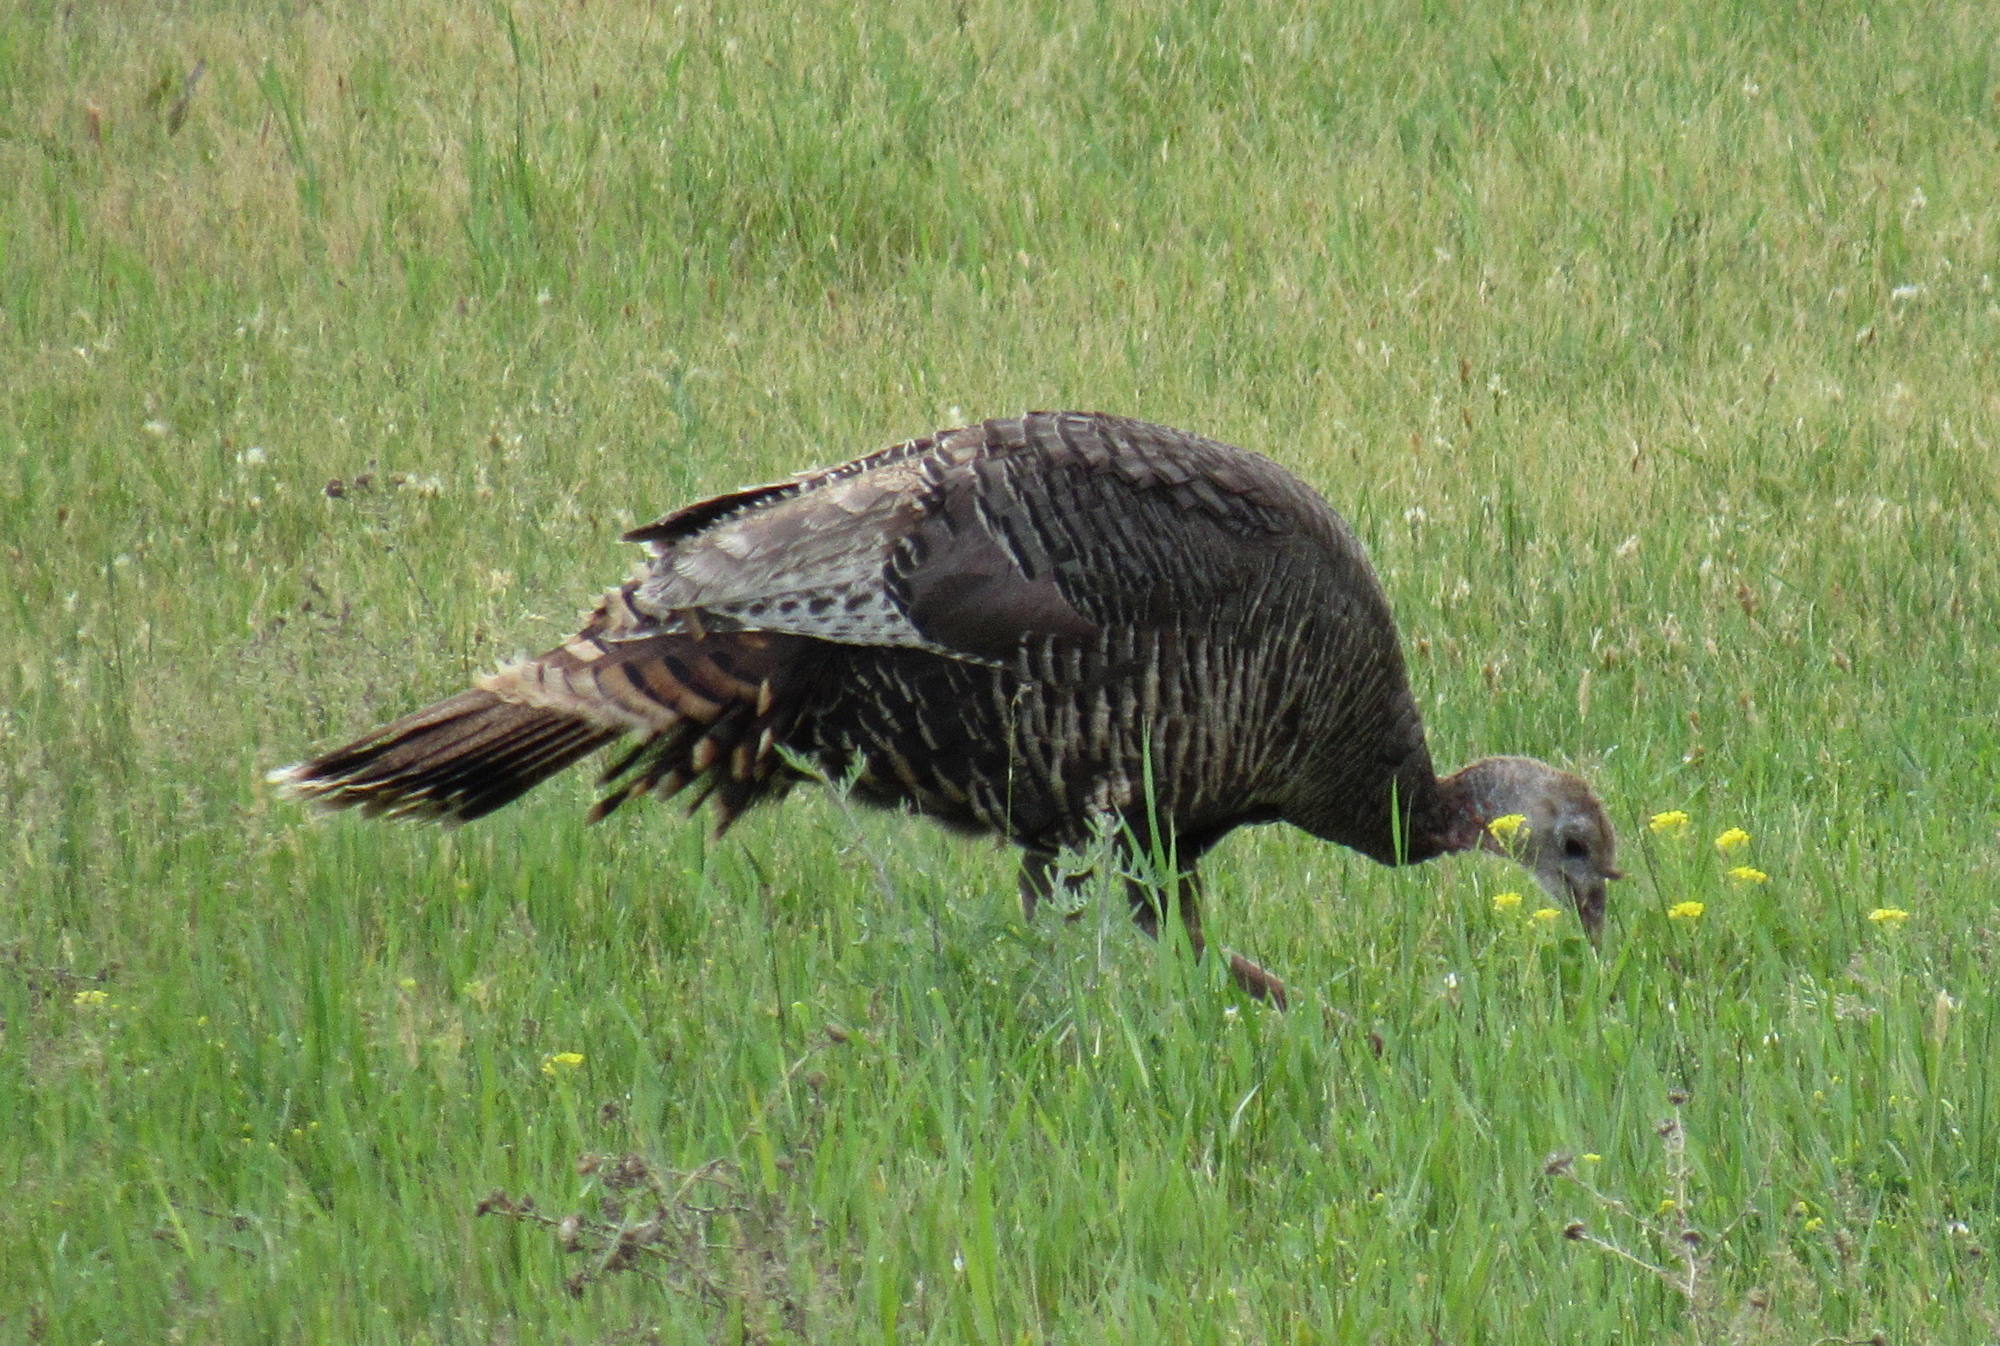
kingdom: Animalia
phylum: Chordata
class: Aves
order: Galliformes
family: Phasianidae
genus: Meleagris
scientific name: Meleagris gallopavo
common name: Wild turkey
